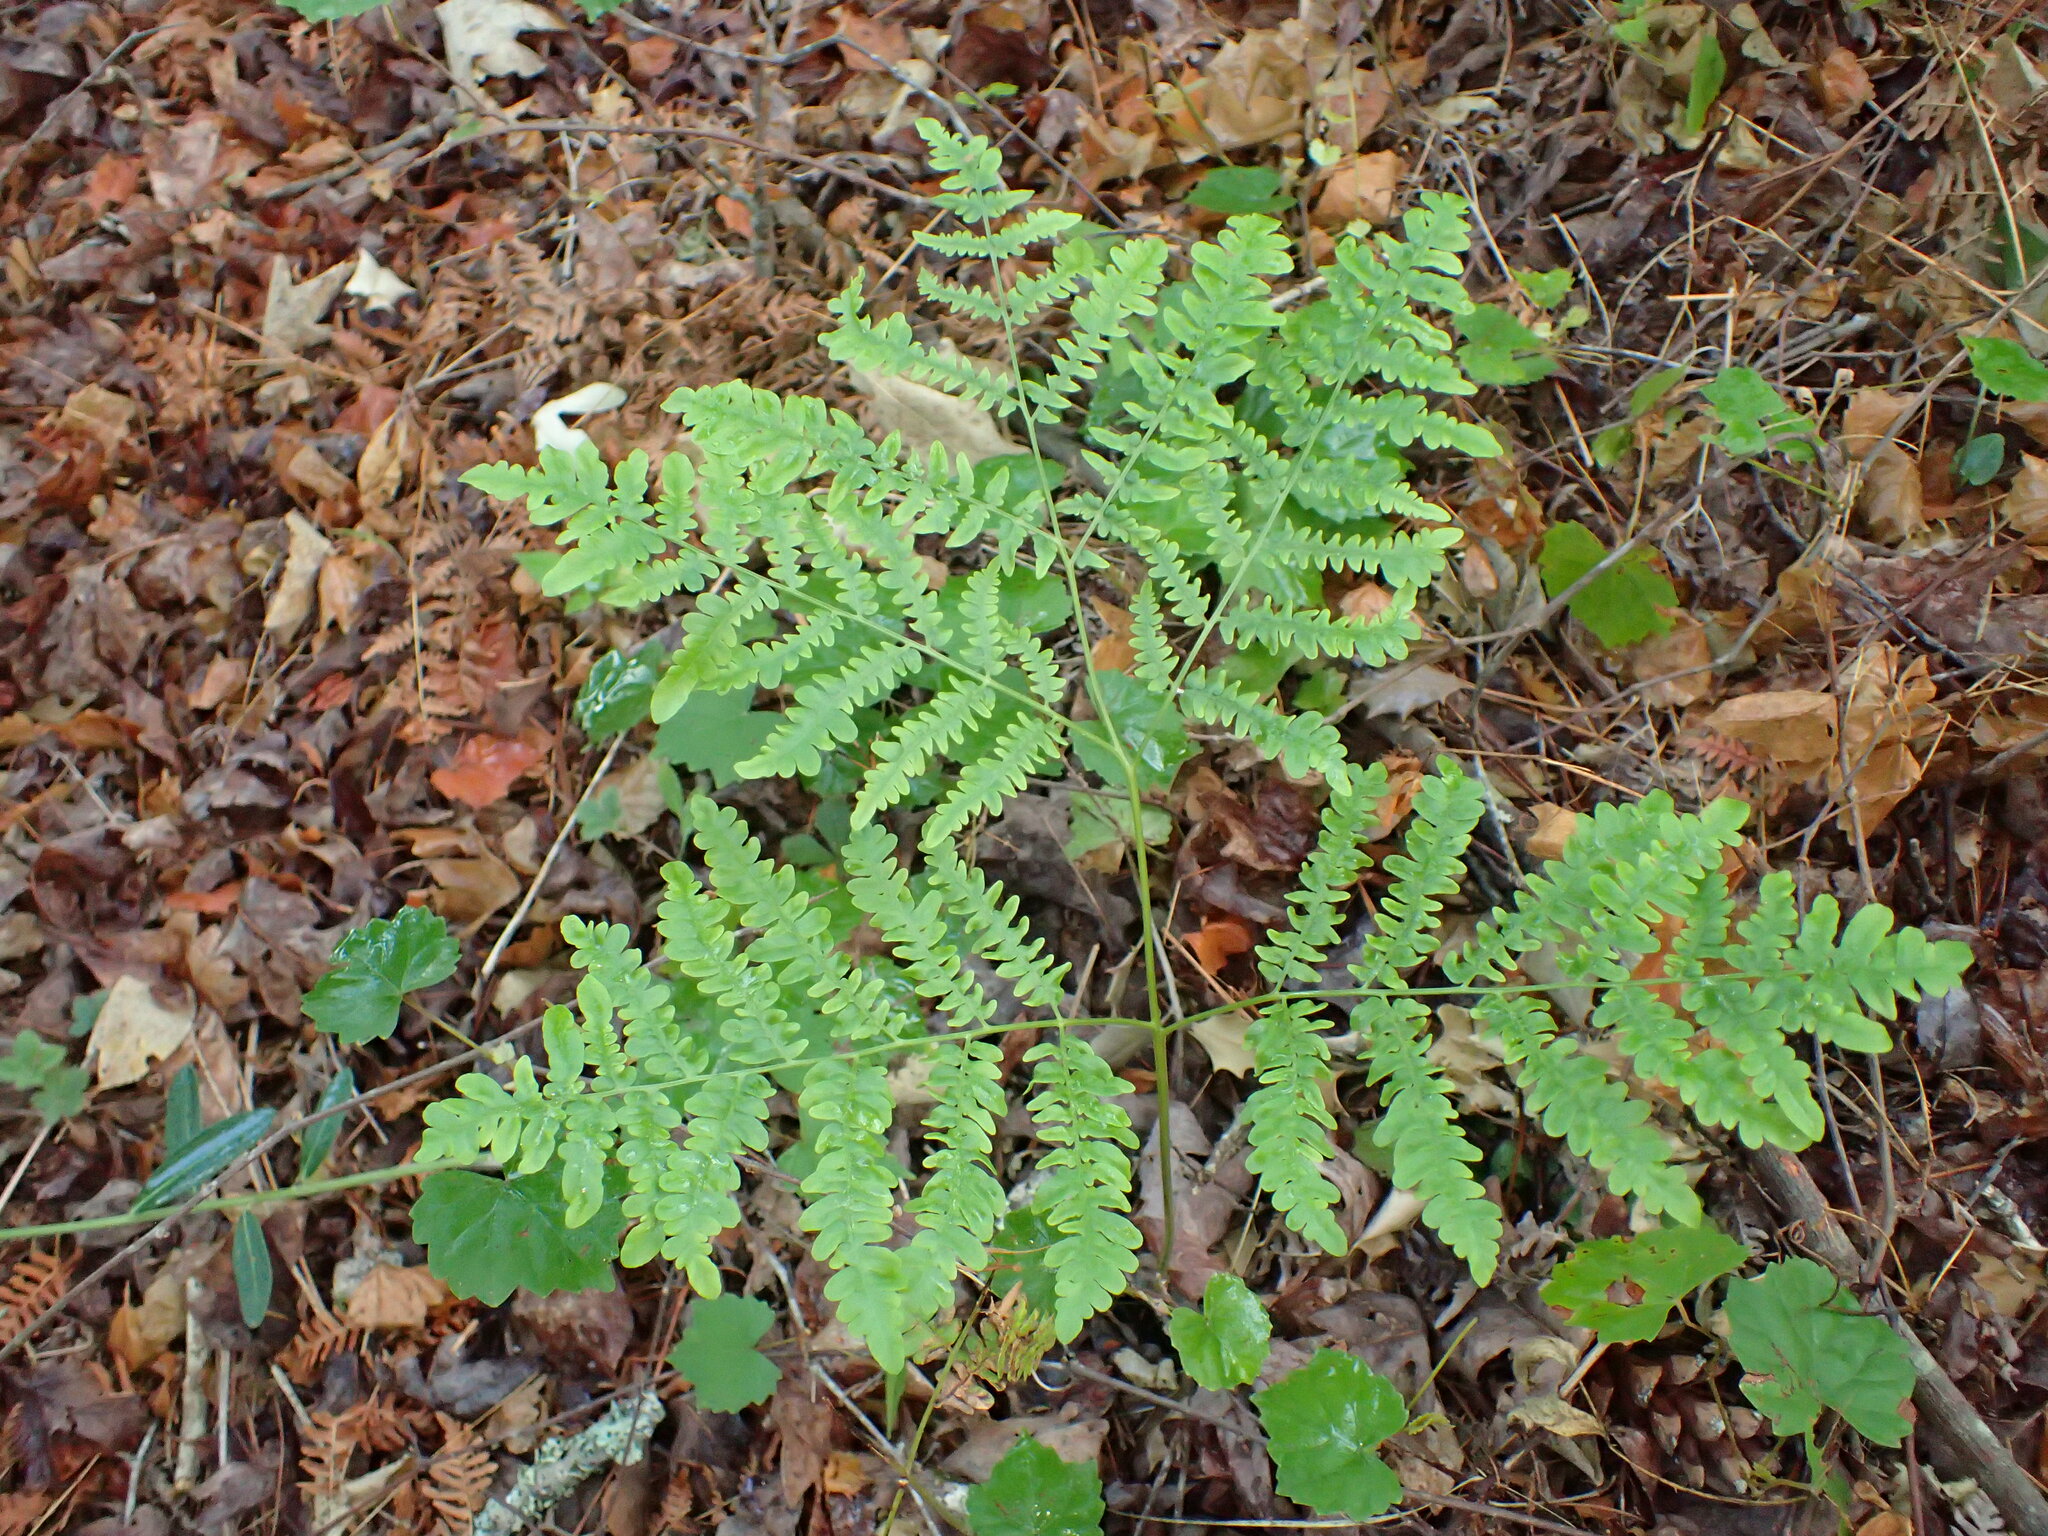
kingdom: Plantae
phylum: Tracheophyta
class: Polypodiopsida
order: Polypodiales
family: Dennstaedtiaceae
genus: Pteridium
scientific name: Pteridium aquilinum
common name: Bracken
